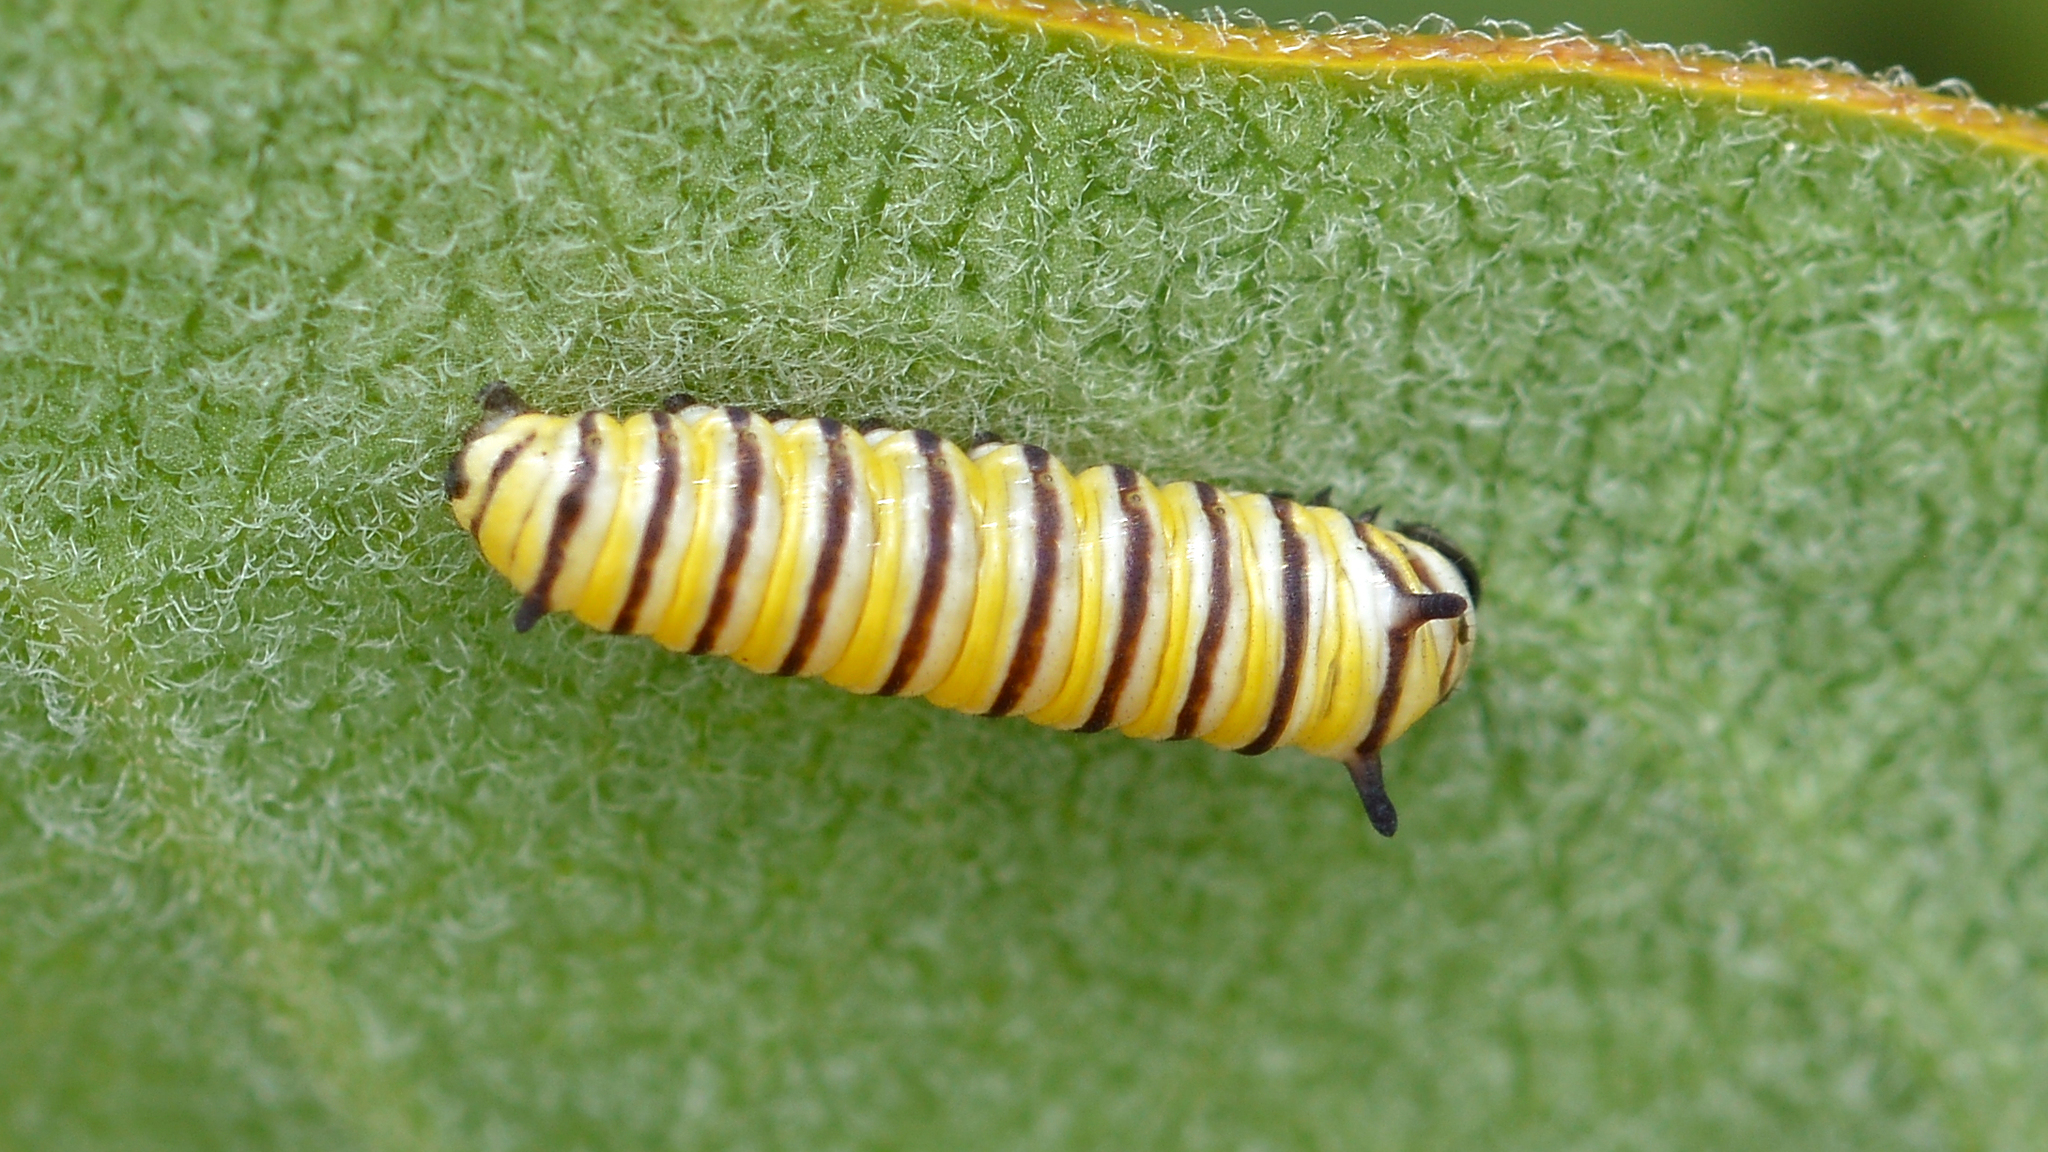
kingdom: Animalia
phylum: Arthropoda
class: Insecta
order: Lepidoptera
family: Nymphalidae
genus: Danaus
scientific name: Danaus plexippus
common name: Monarch
